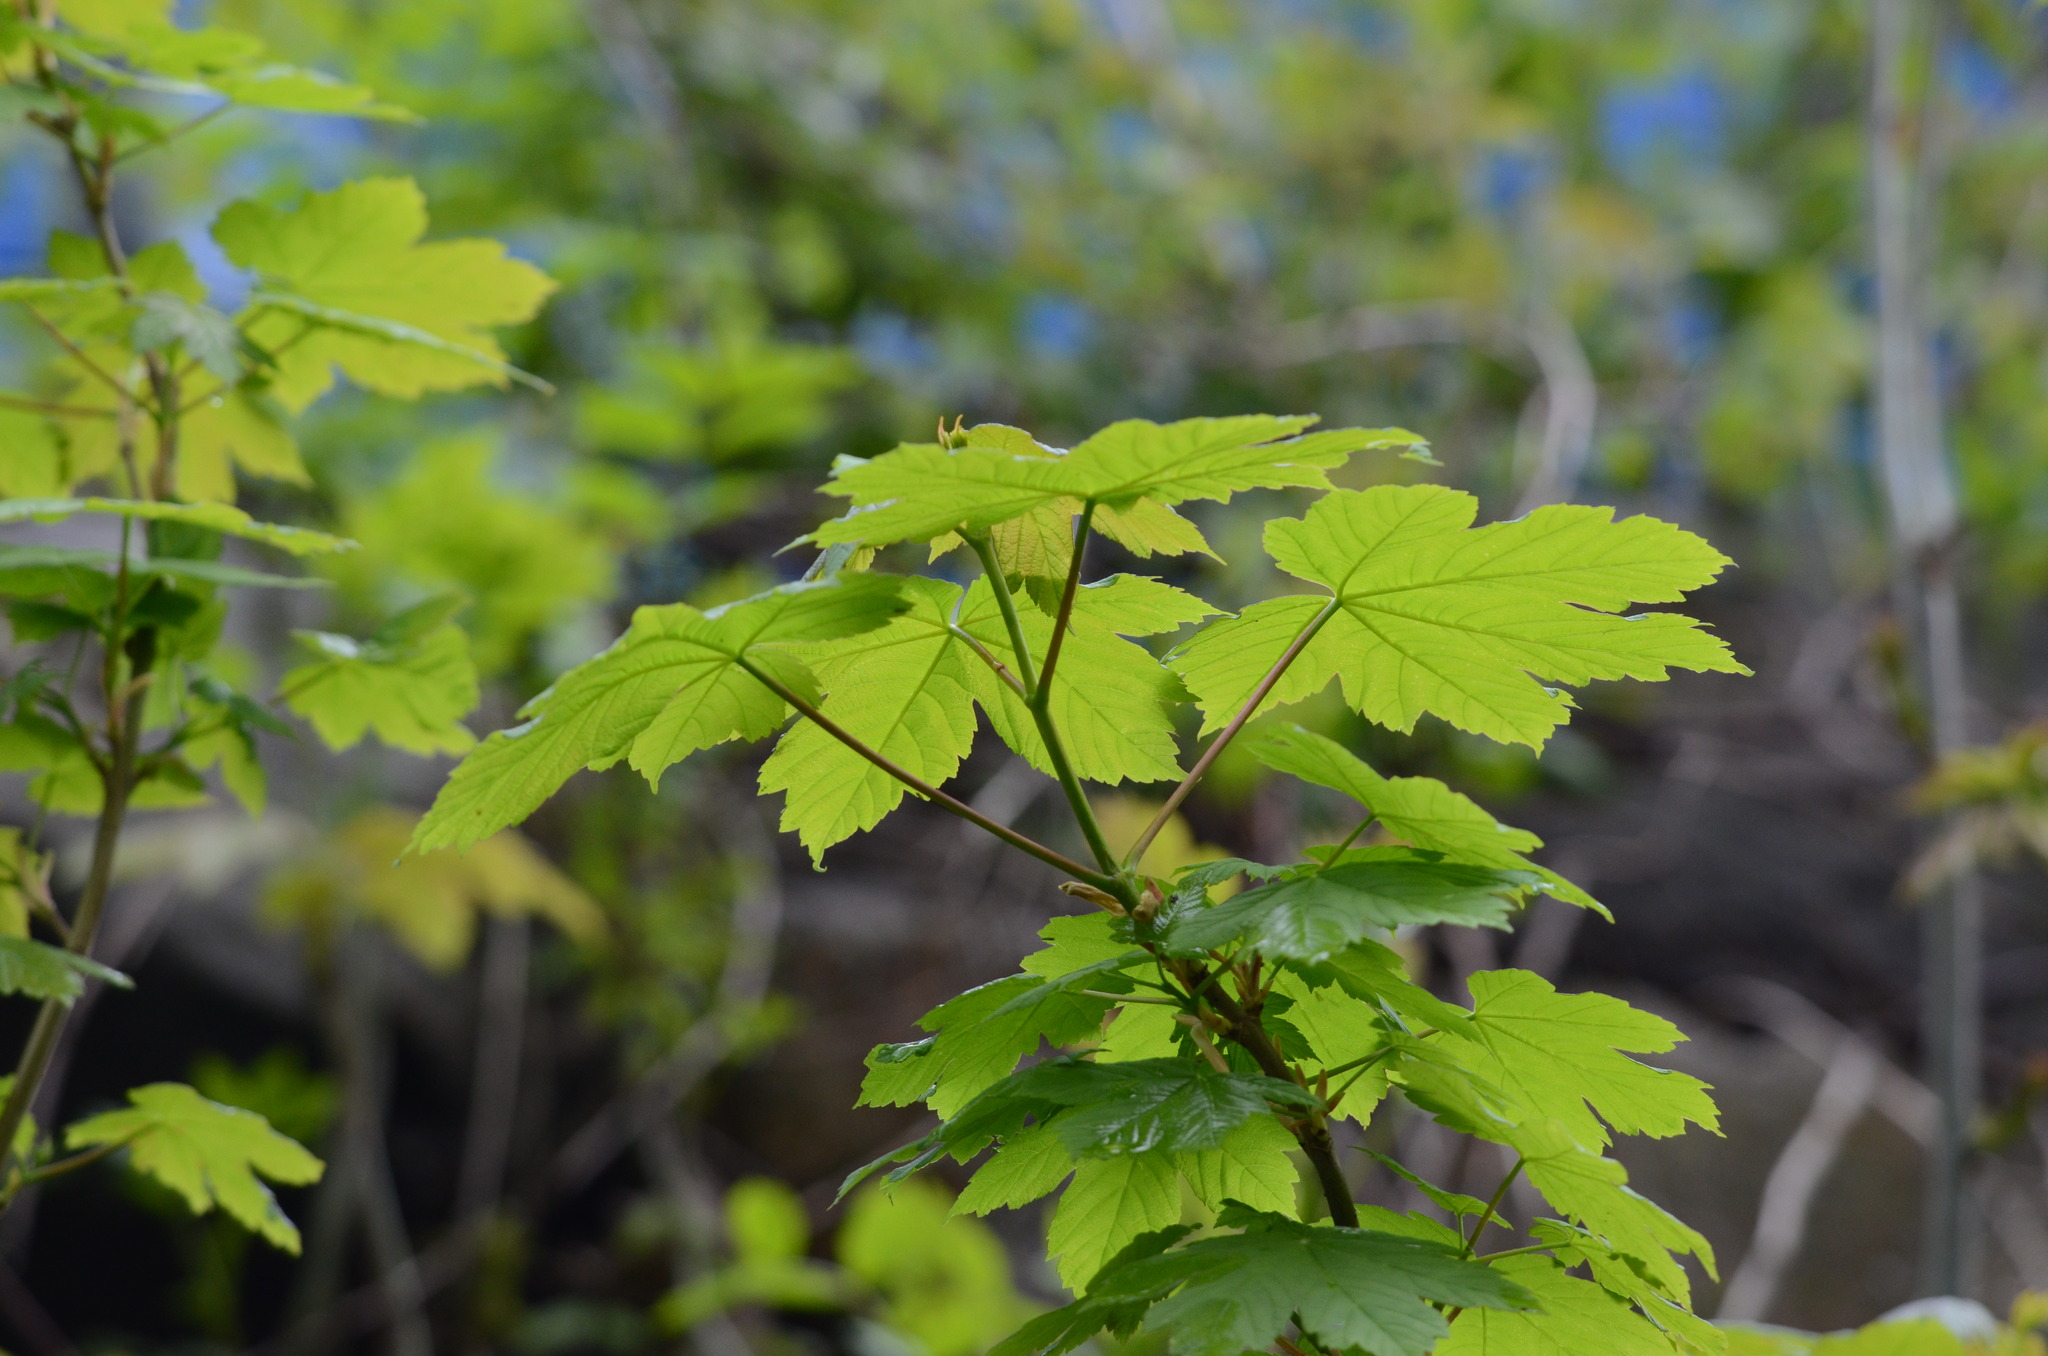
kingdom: Plantae
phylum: Tracheophyta
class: Magnoliopsida
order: Sapindales
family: Sapindaceae
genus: Acer
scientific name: Acer pseudoplatanus
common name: Sycamore
